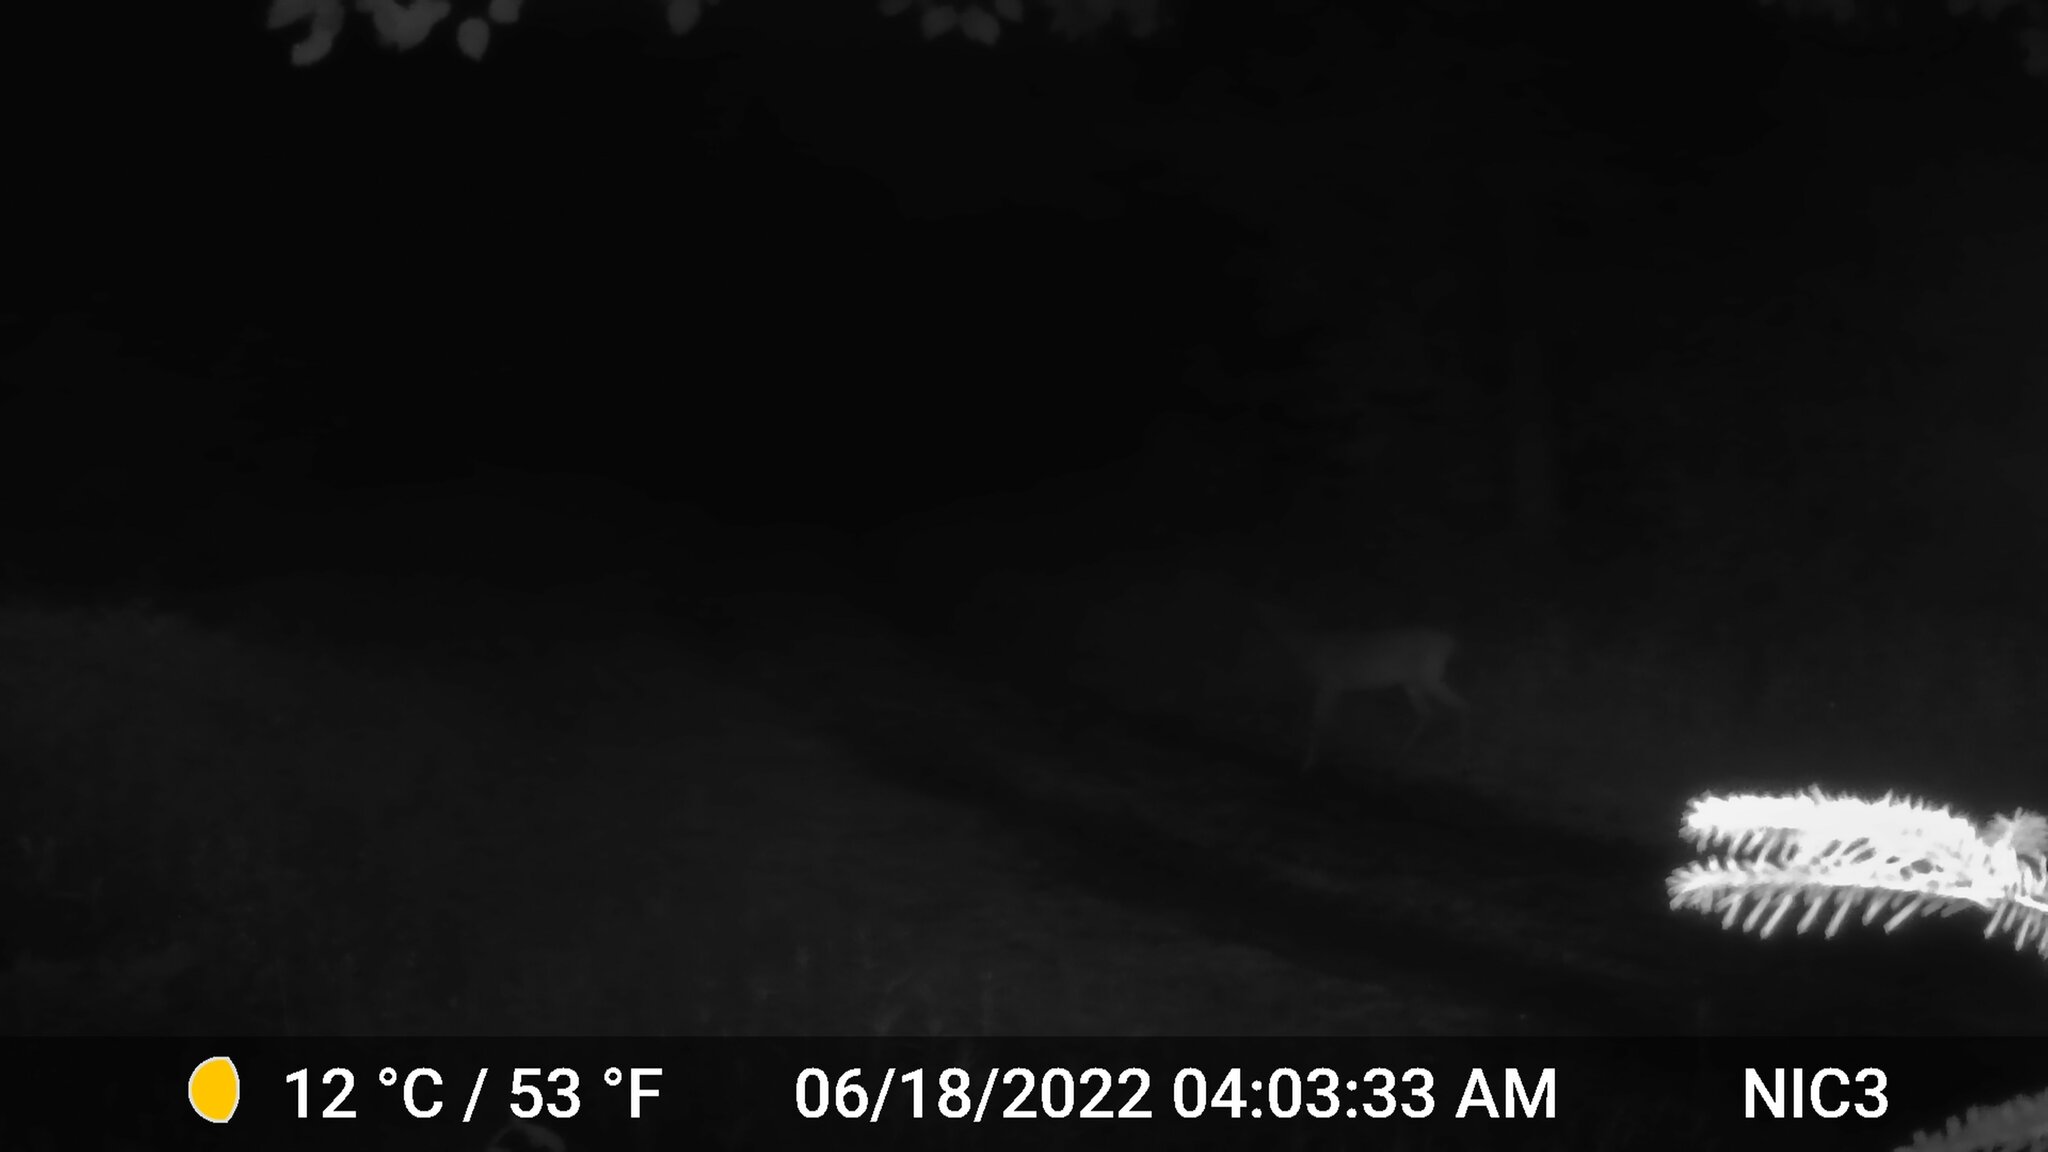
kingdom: Animalia
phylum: Chordata
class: Mammalia
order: Artiodactyla
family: Cervidae
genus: Odocoileus
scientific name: Odocoileus virginianus
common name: White-tailed deer
